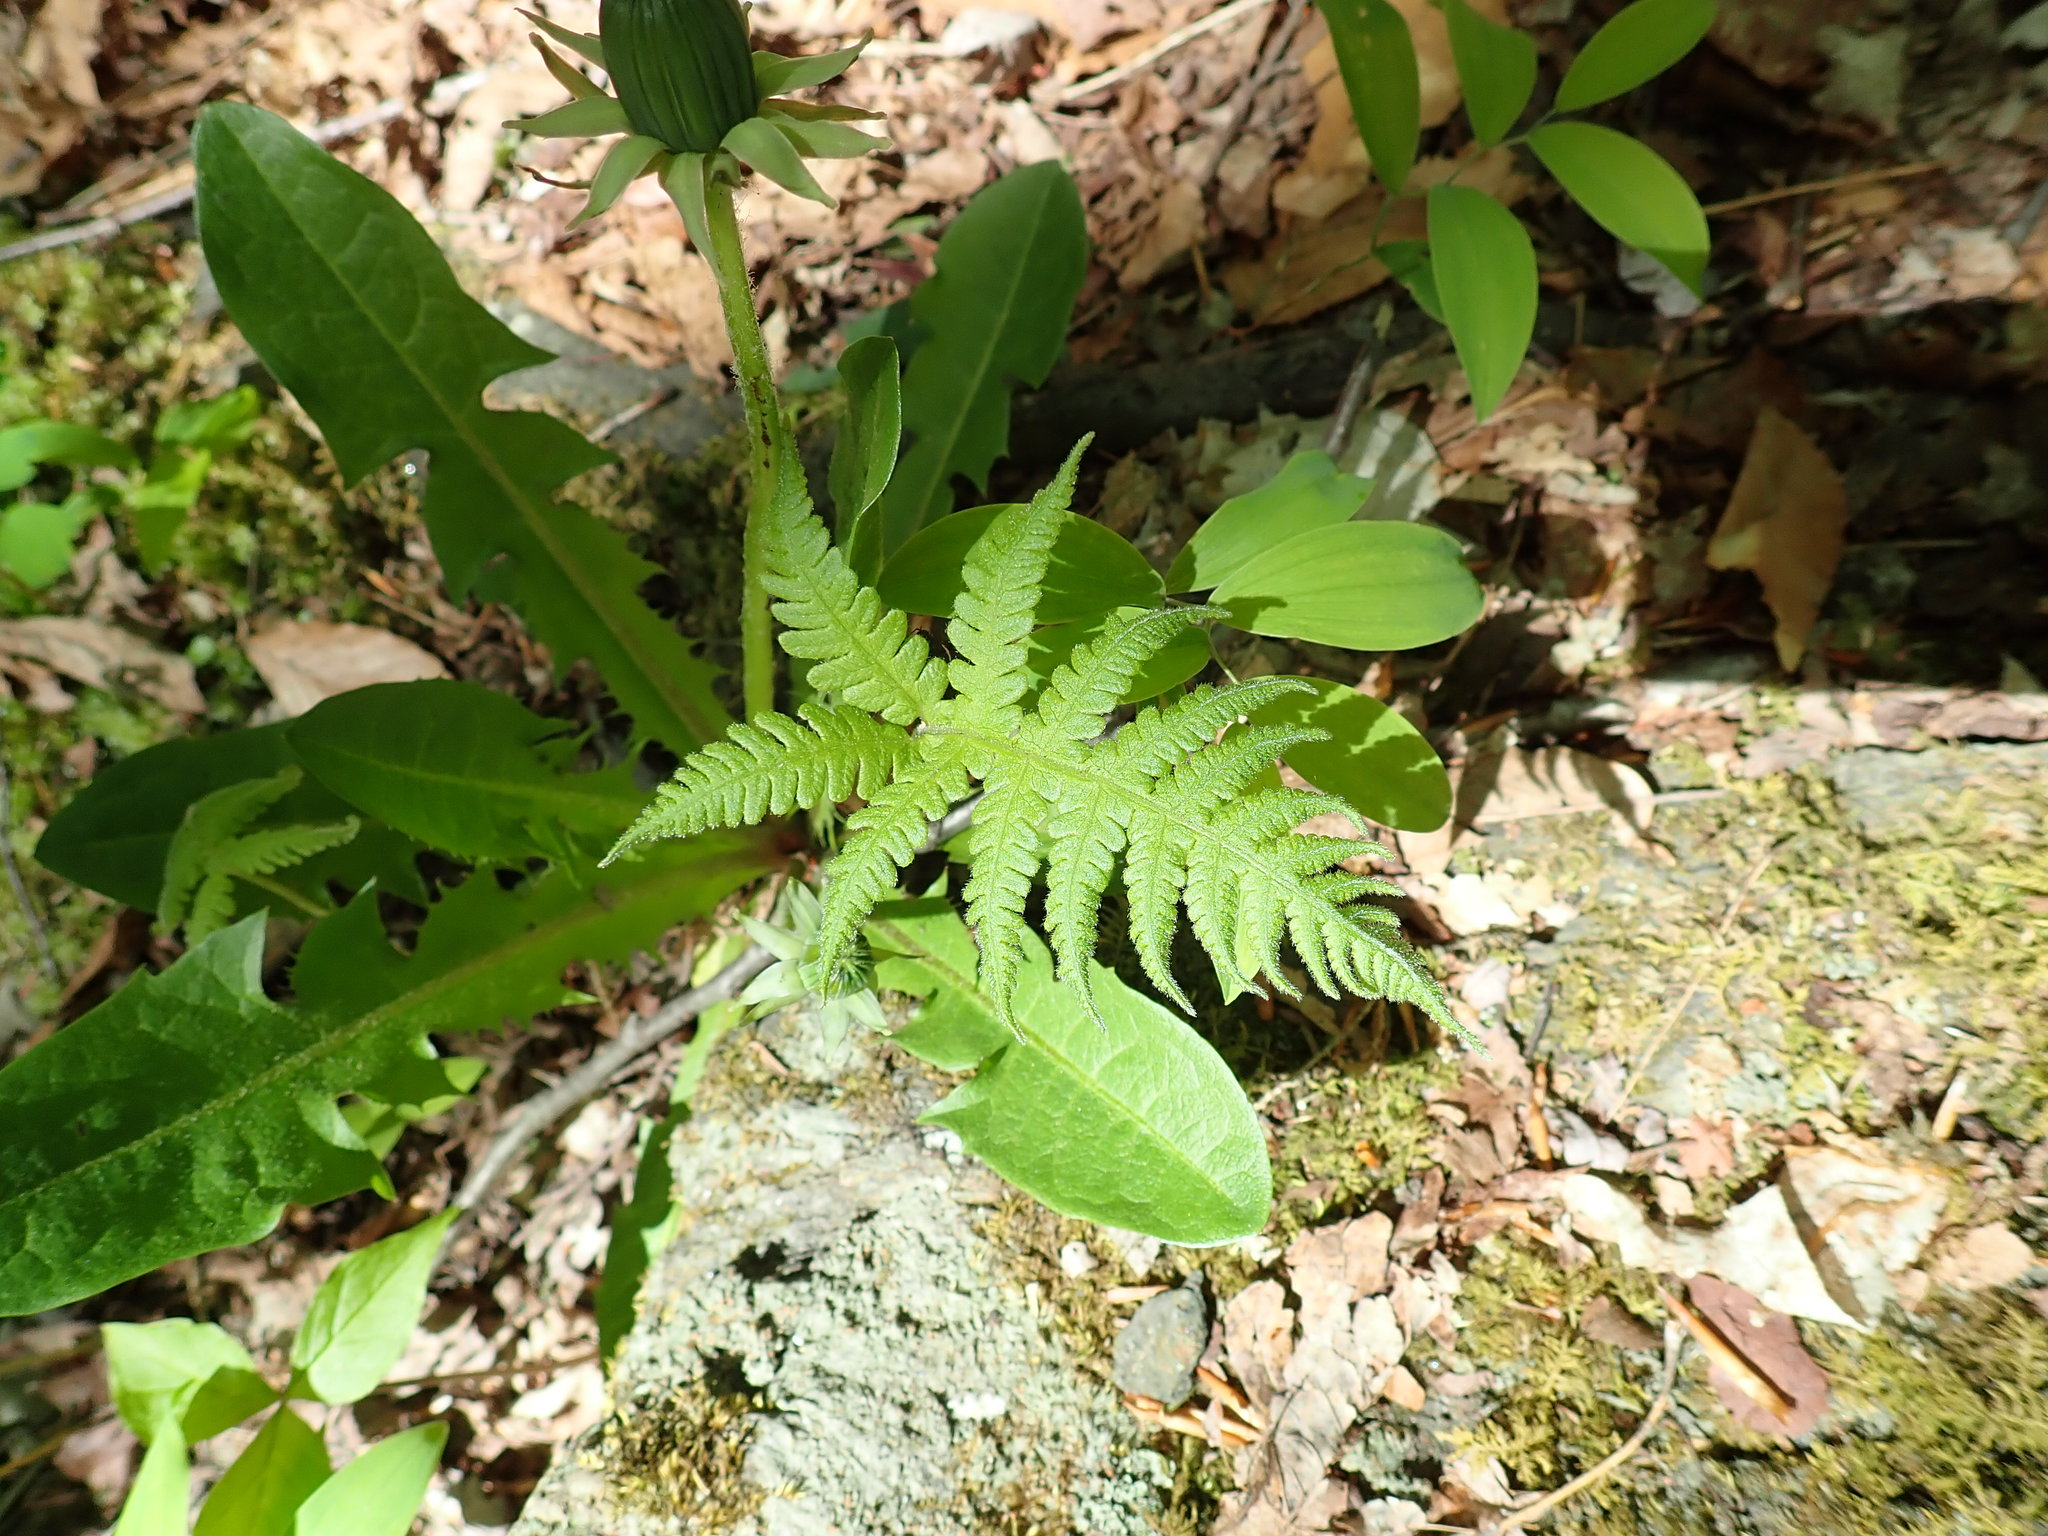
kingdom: Plantae
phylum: Tracheophyta
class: Polypodiopsida
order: Polypodiales
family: Thelypteridaceae
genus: Phegopteris
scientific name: Phegopteris connectilis
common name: Beech fern
